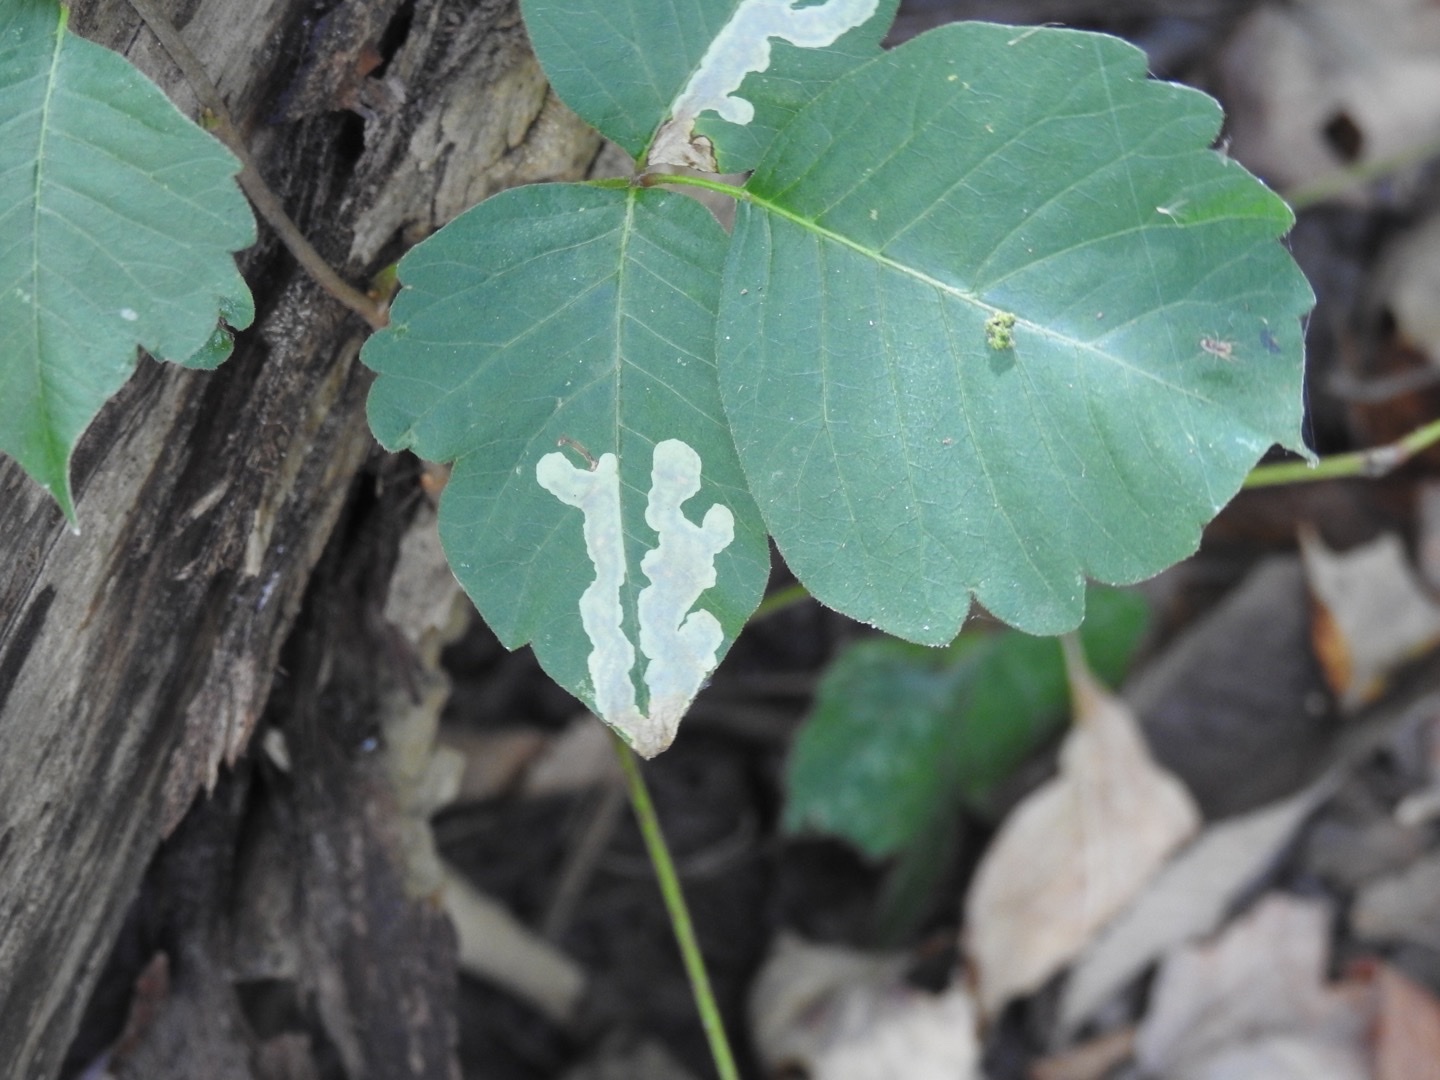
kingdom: Animalia
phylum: Arthropoda
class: Insecta
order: Lepidoptera
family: Gracillariidae
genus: Cameraria
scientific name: Cameraria guttifinitella
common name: Poison ivy leaf-miner moth
